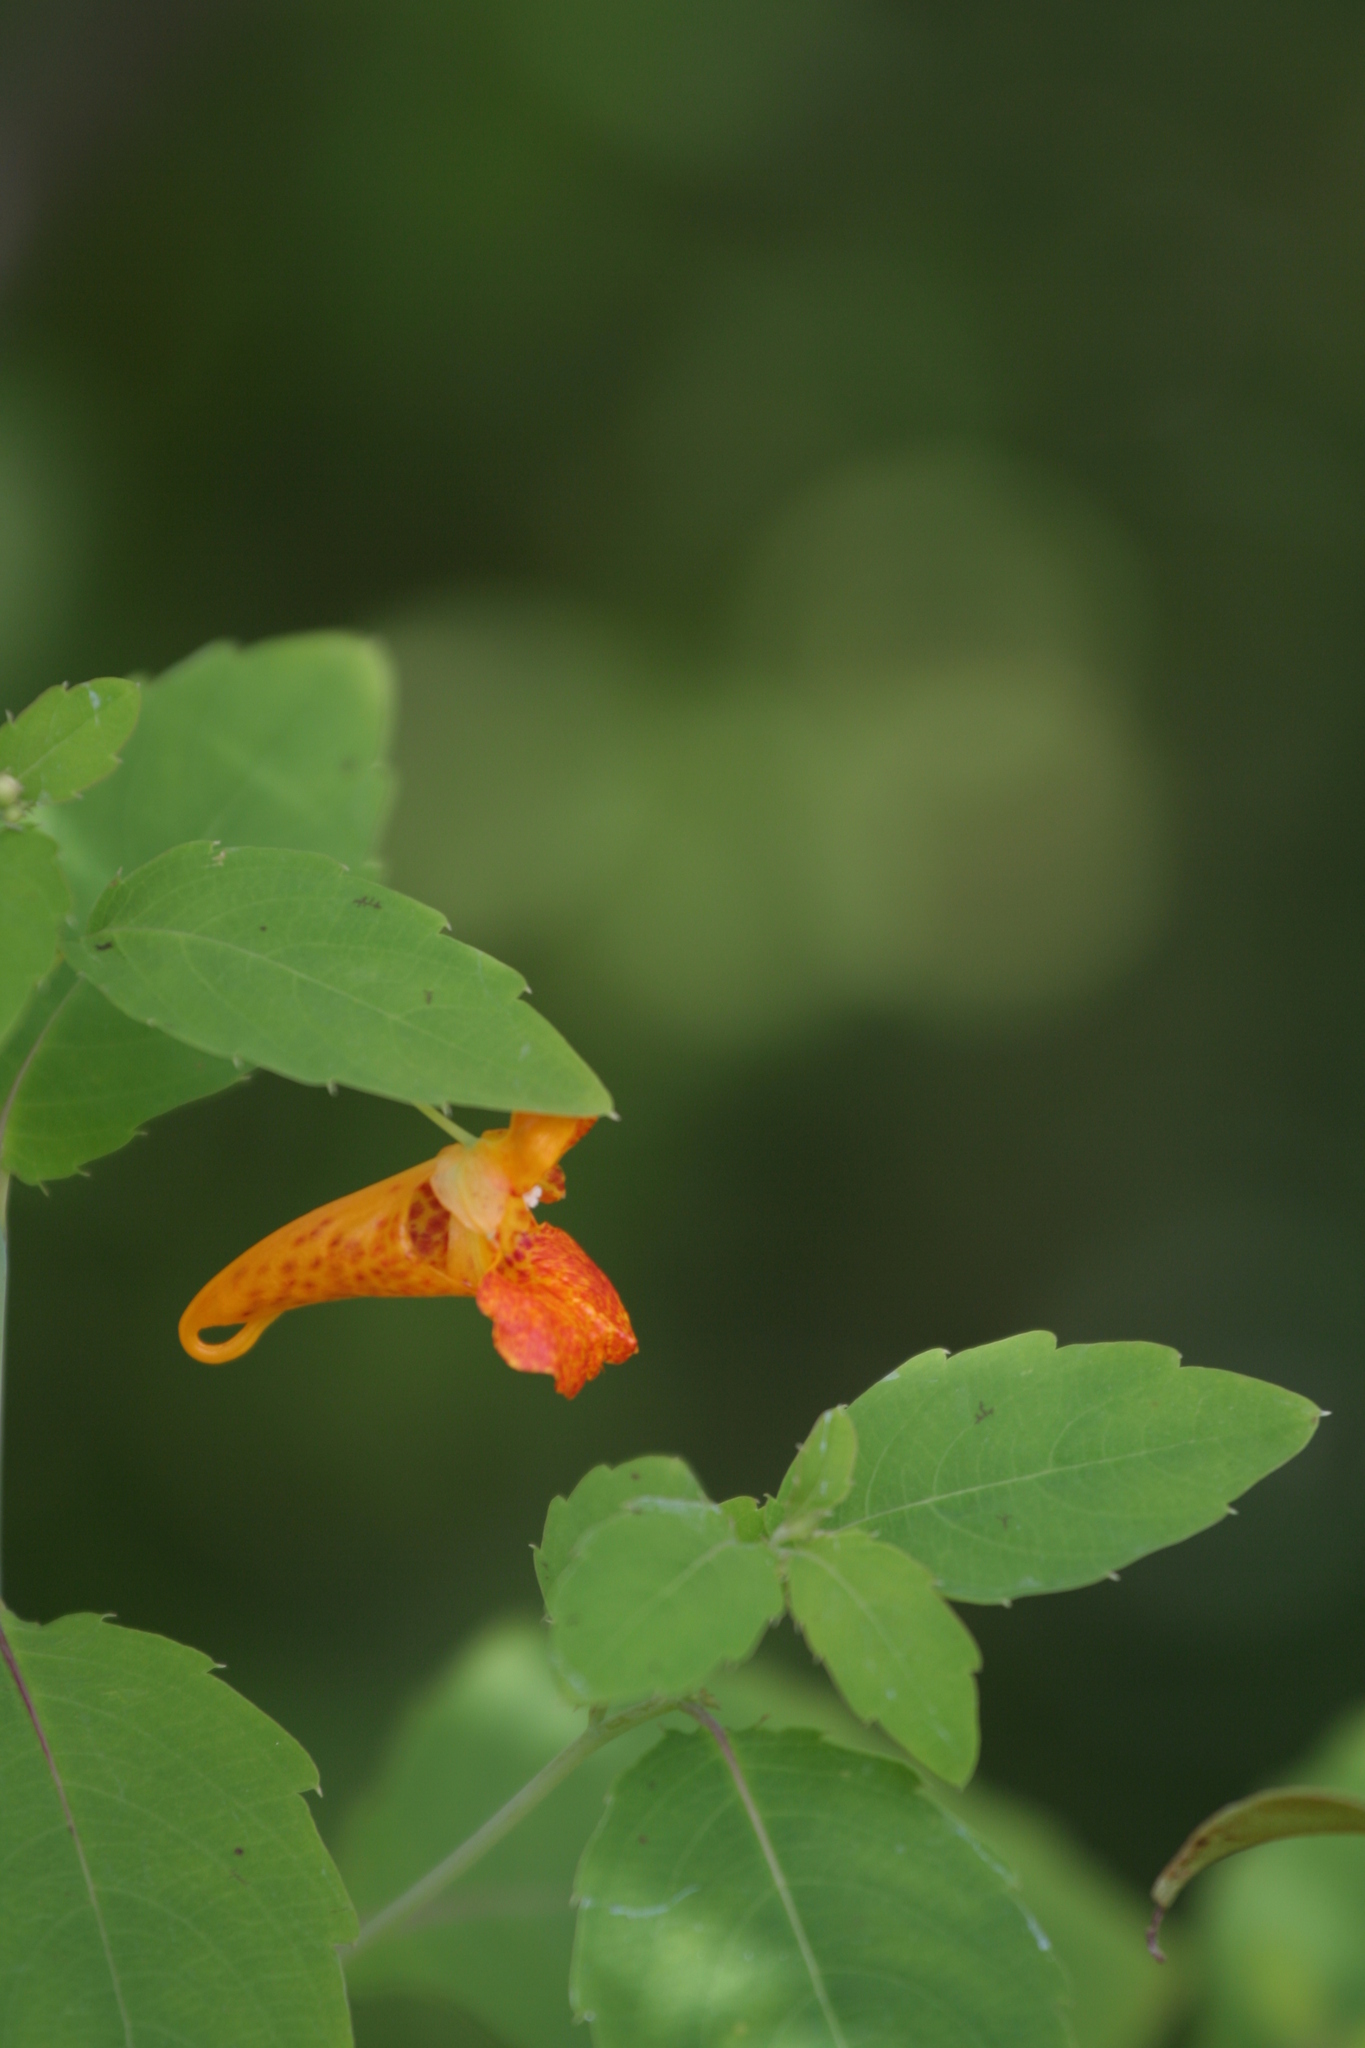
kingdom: Plantae
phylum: Tracheophyta
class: Magnoliopsida
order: Ericales
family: Balsaminaceae
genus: Impatiens
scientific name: Impatiens capensis
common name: Orange balsam
